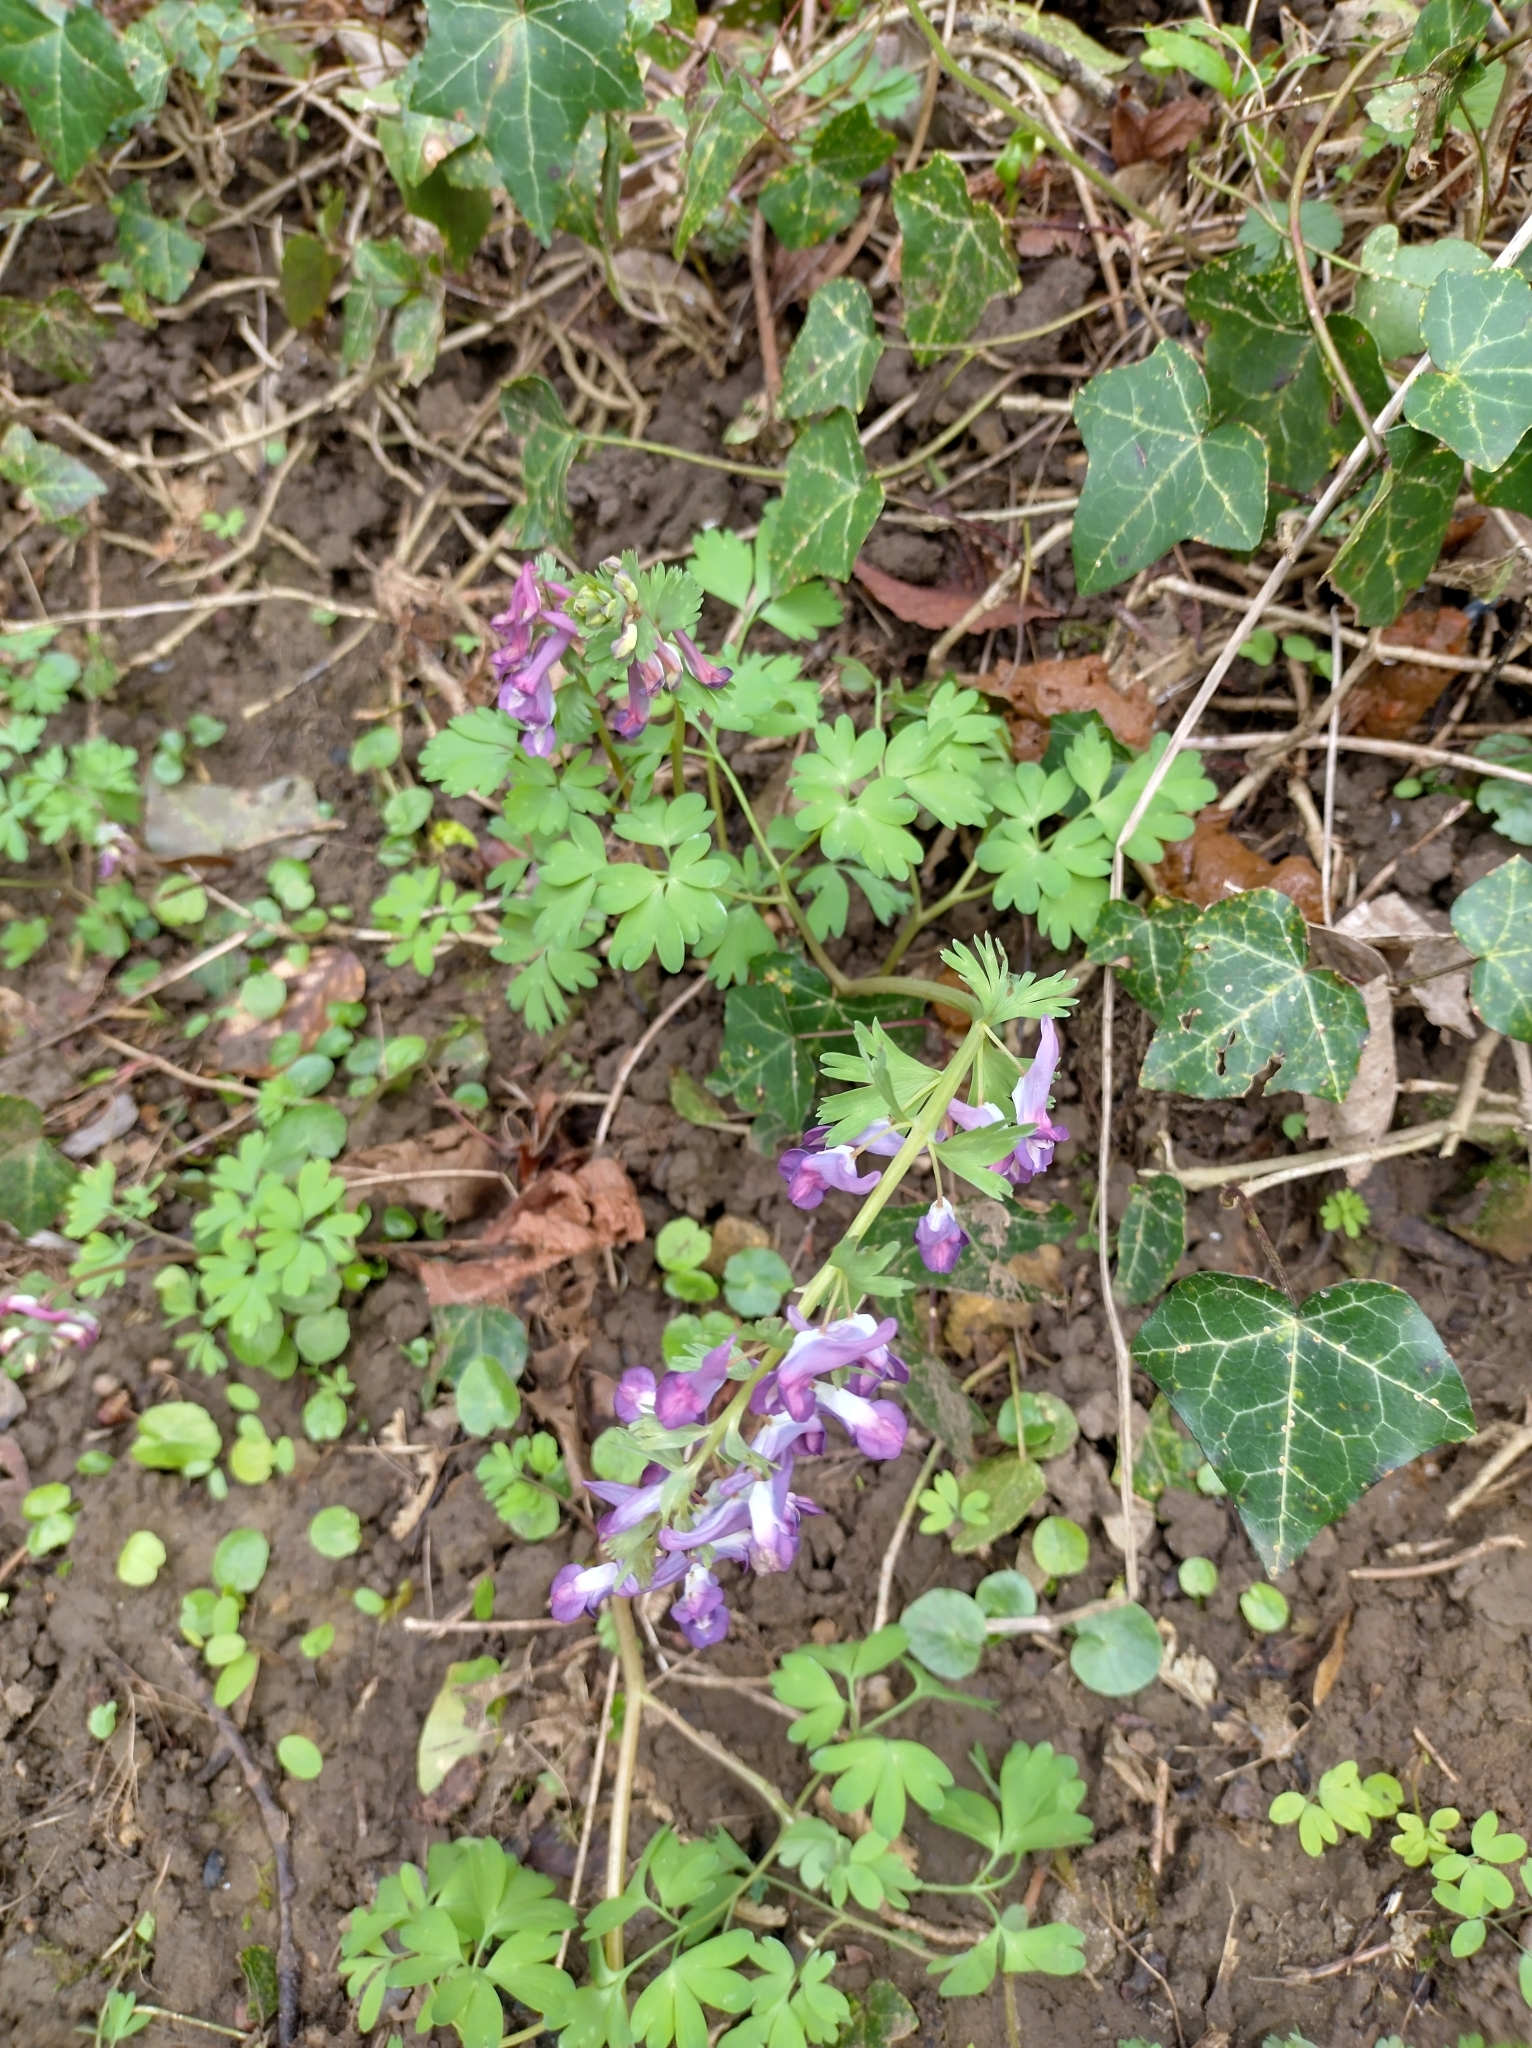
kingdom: Plantae
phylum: Tracheophyta
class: Magnoliopsida
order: Ranunculales
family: Papaveraceae
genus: Corydalis
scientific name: Corydalis solida
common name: Bird-in-a-bush
